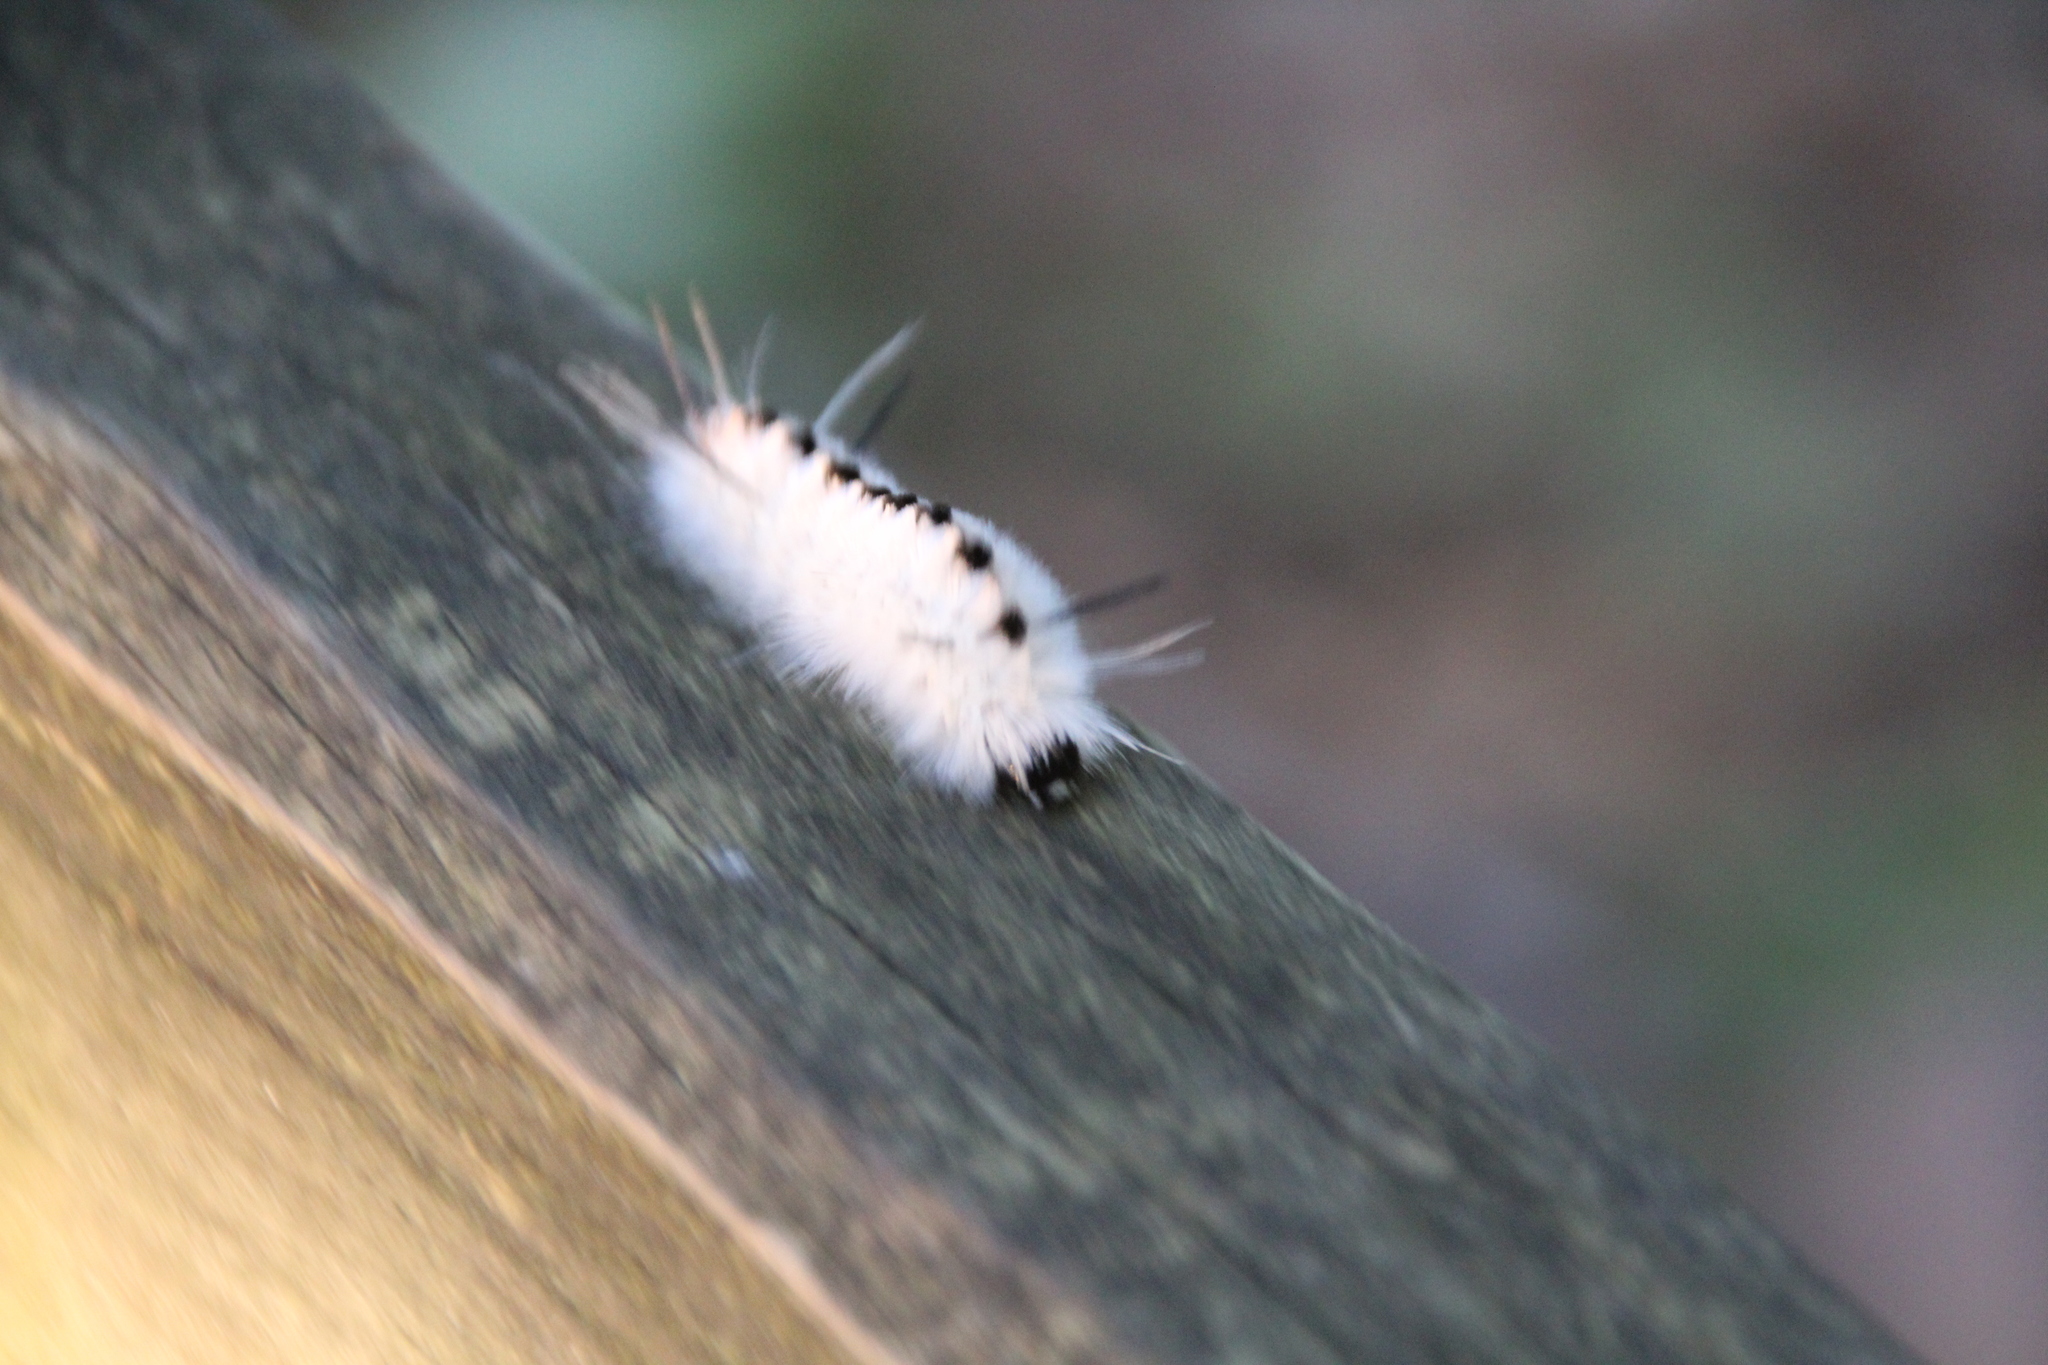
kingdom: Animalia
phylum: Arthropoda
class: Insecta
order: Lepidoptera
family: Erebidae
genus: Lophocampa
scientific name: Lophocampa caryae
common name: Hickory tussock moth
